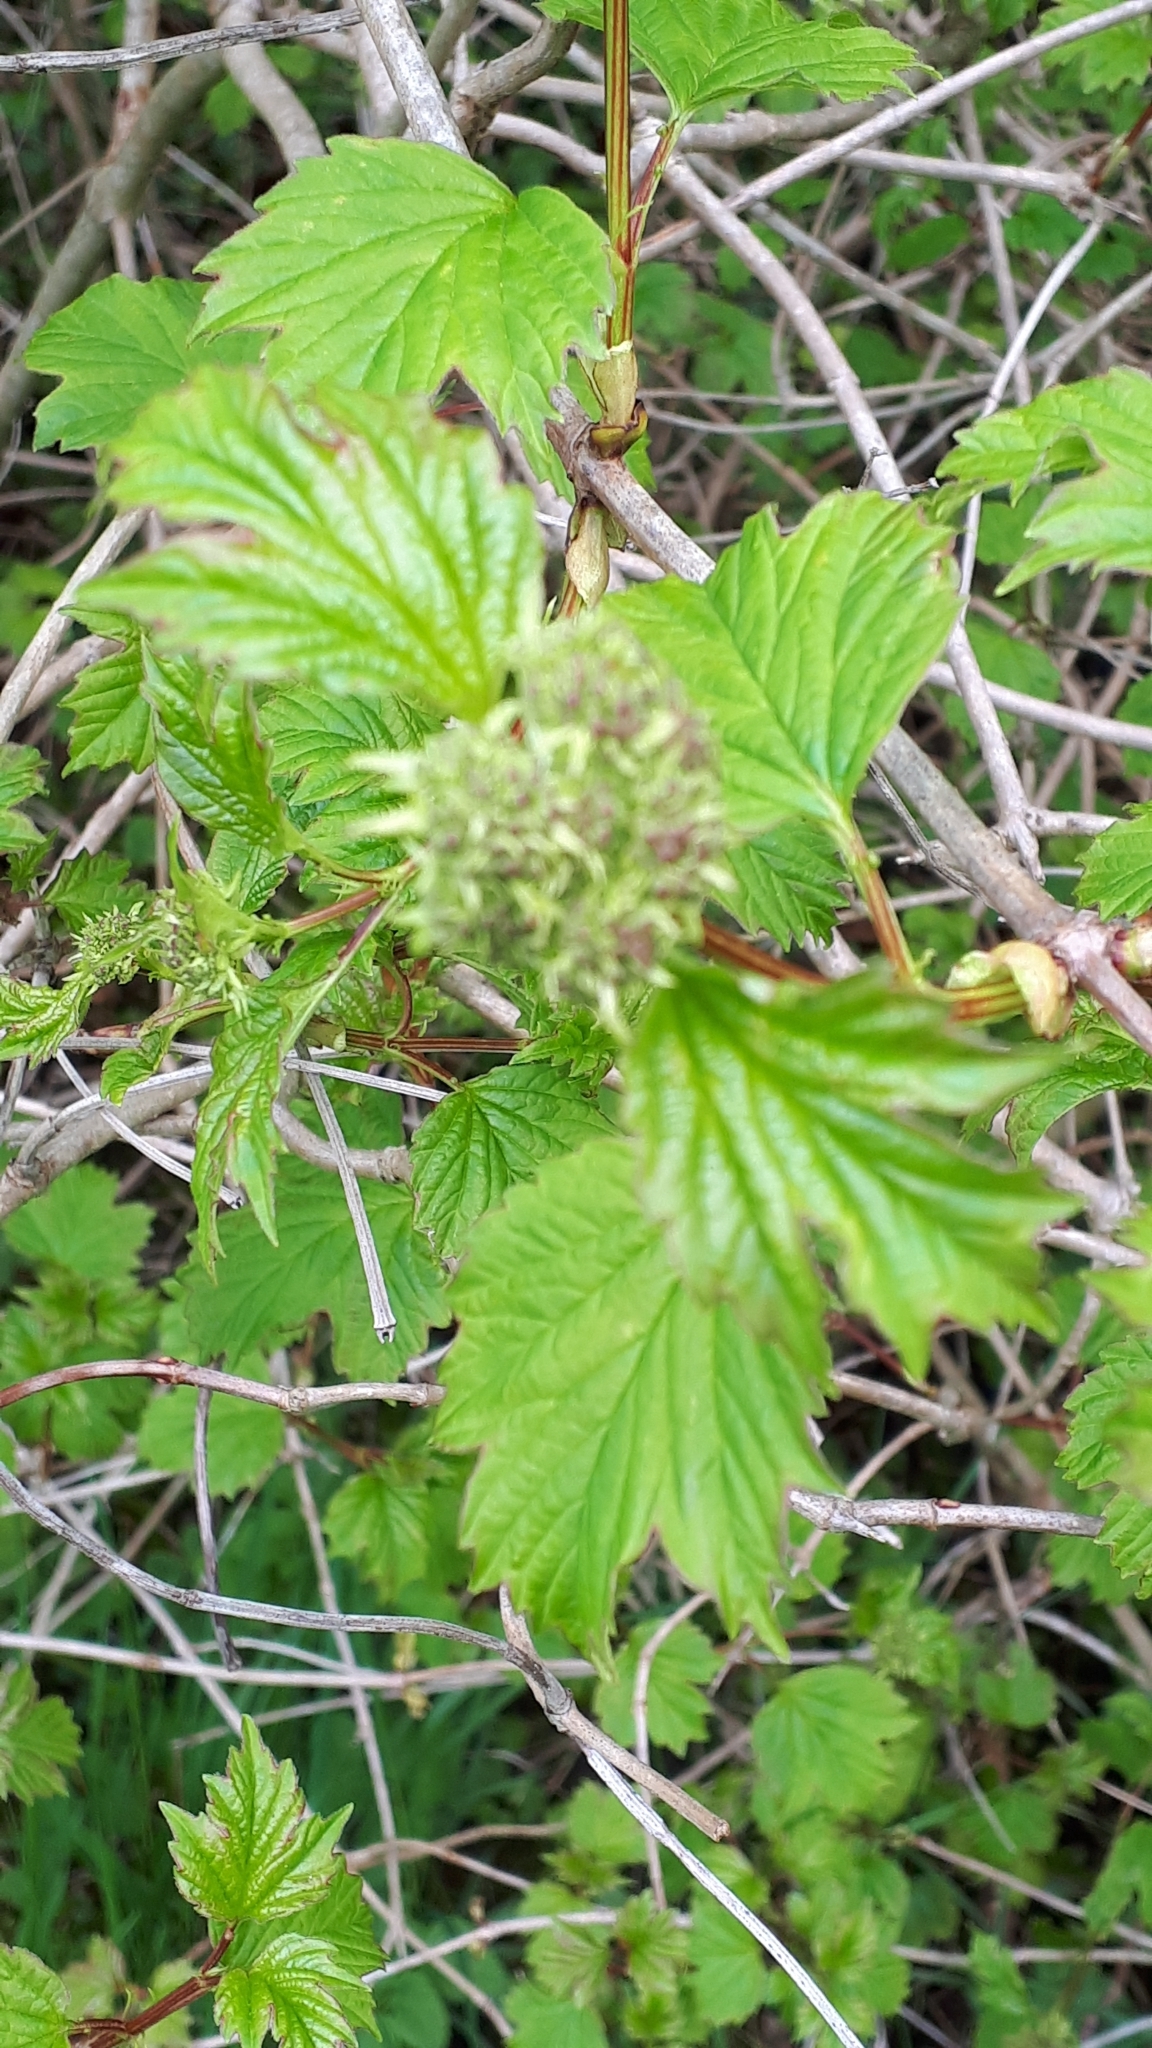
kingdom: Plantae
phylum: Tracheophyta
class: Magnoliopsida
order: Dipsacales
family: Viburnaceae
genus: Viburnum
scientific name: Viburnum opulus
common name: Guelder-rose
